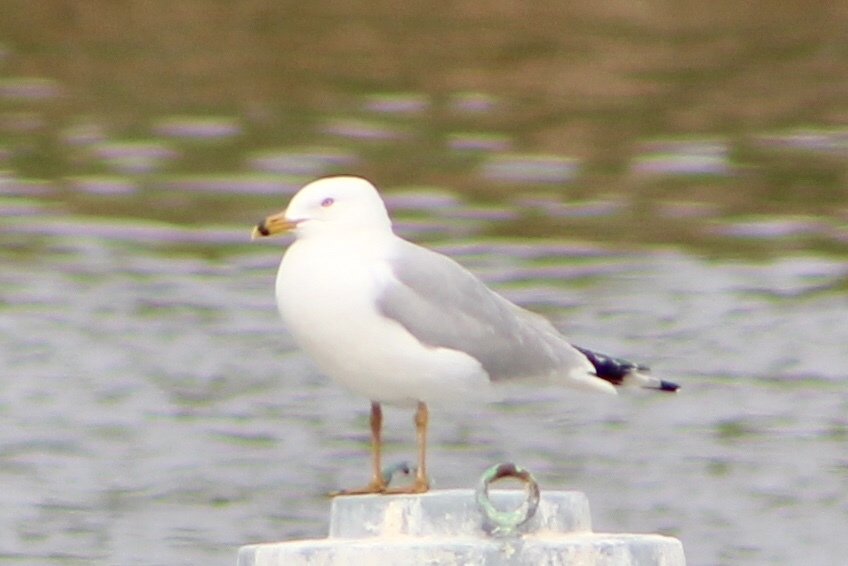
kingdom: Animalia
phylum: Chordata
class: Aves
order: Charadriiformes
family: Laridae
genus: Larus
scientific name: Larus delawarensis
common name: Ring-billed gull
